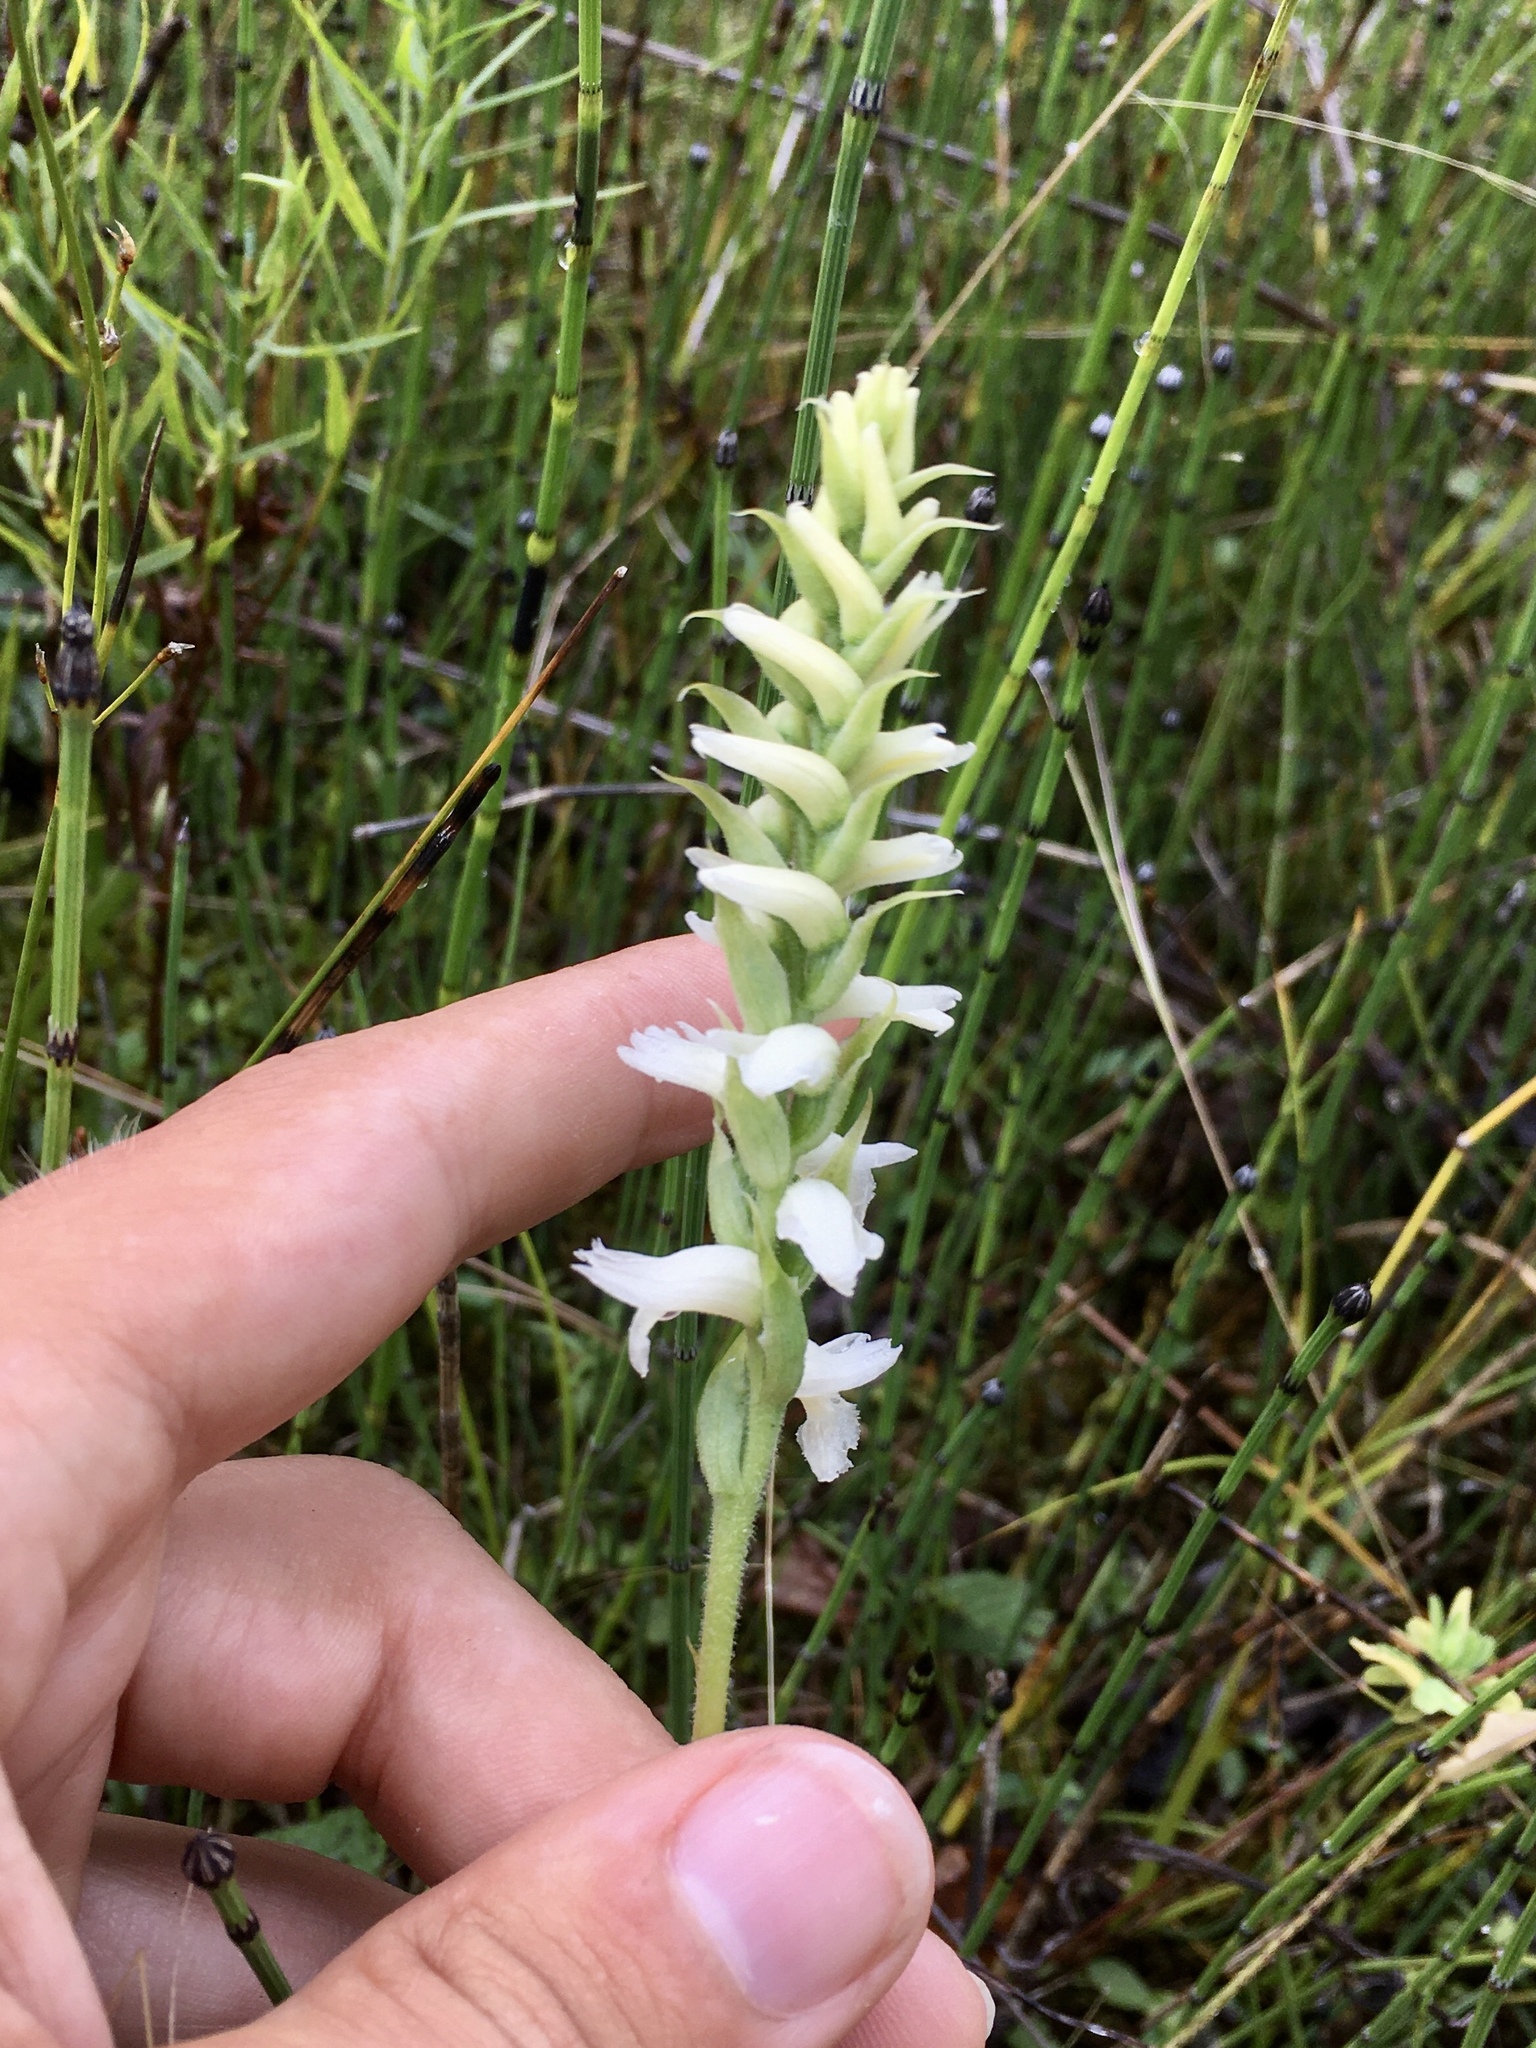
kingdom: Plantae
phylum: Tracheophyta
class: Liliopsida
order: Asparagales
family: Orchidaceae
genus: Spiranthes
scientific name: Spiranthes incurva
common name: Sphinx ladies'-tresses
